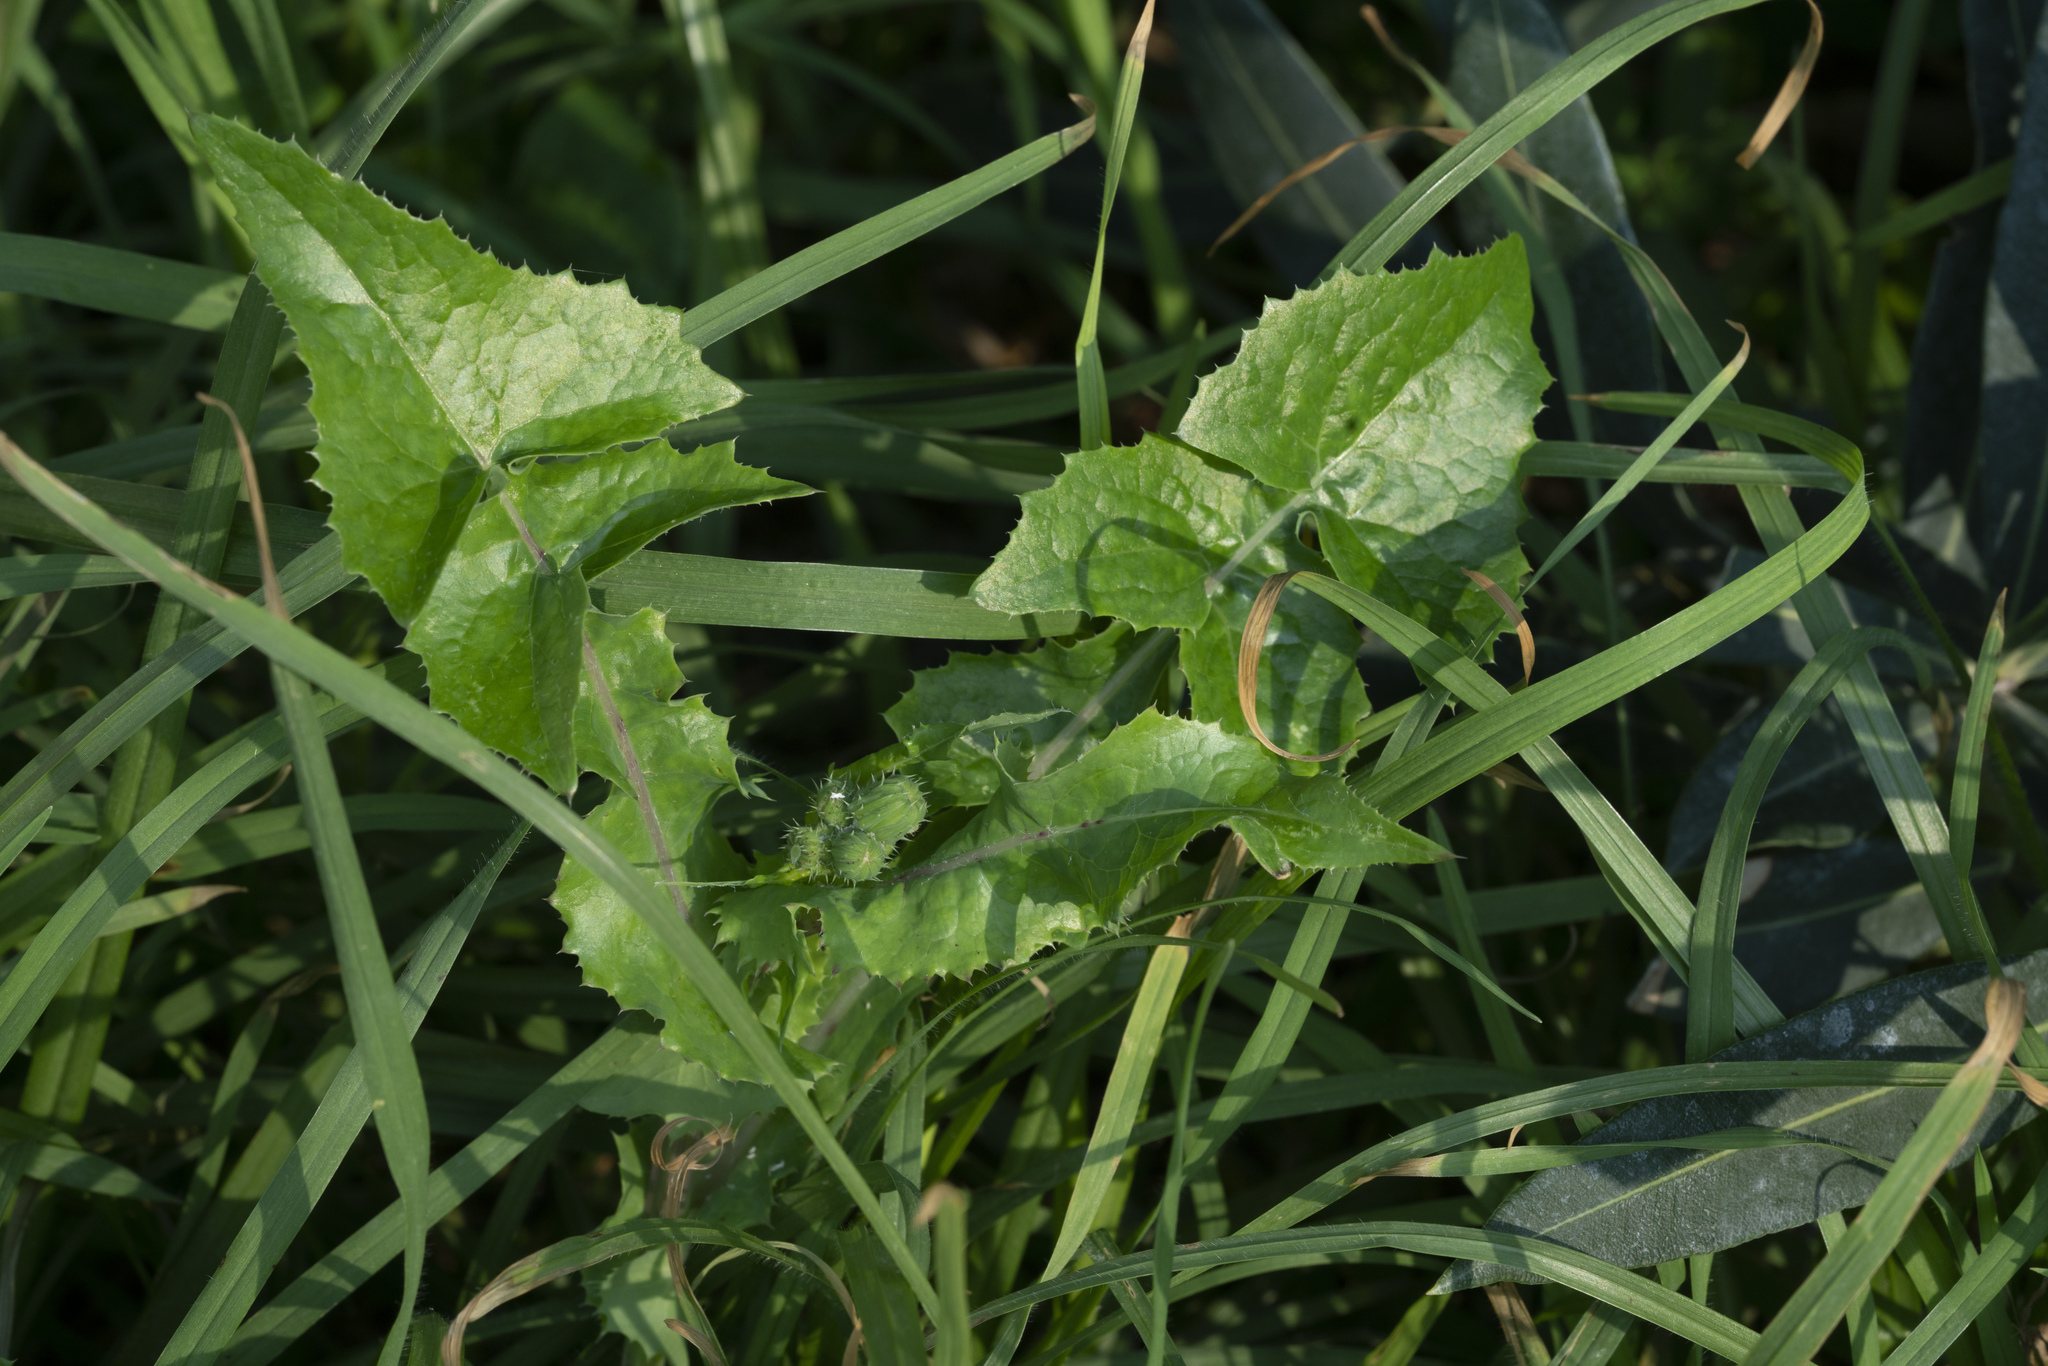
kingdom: Plantae
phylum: Tracheophyta
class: Magnoliopsida
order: Asterales
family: Asteraceae
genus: Sonchus
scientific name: Sonchus oleraceus
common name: Common sowthistle
